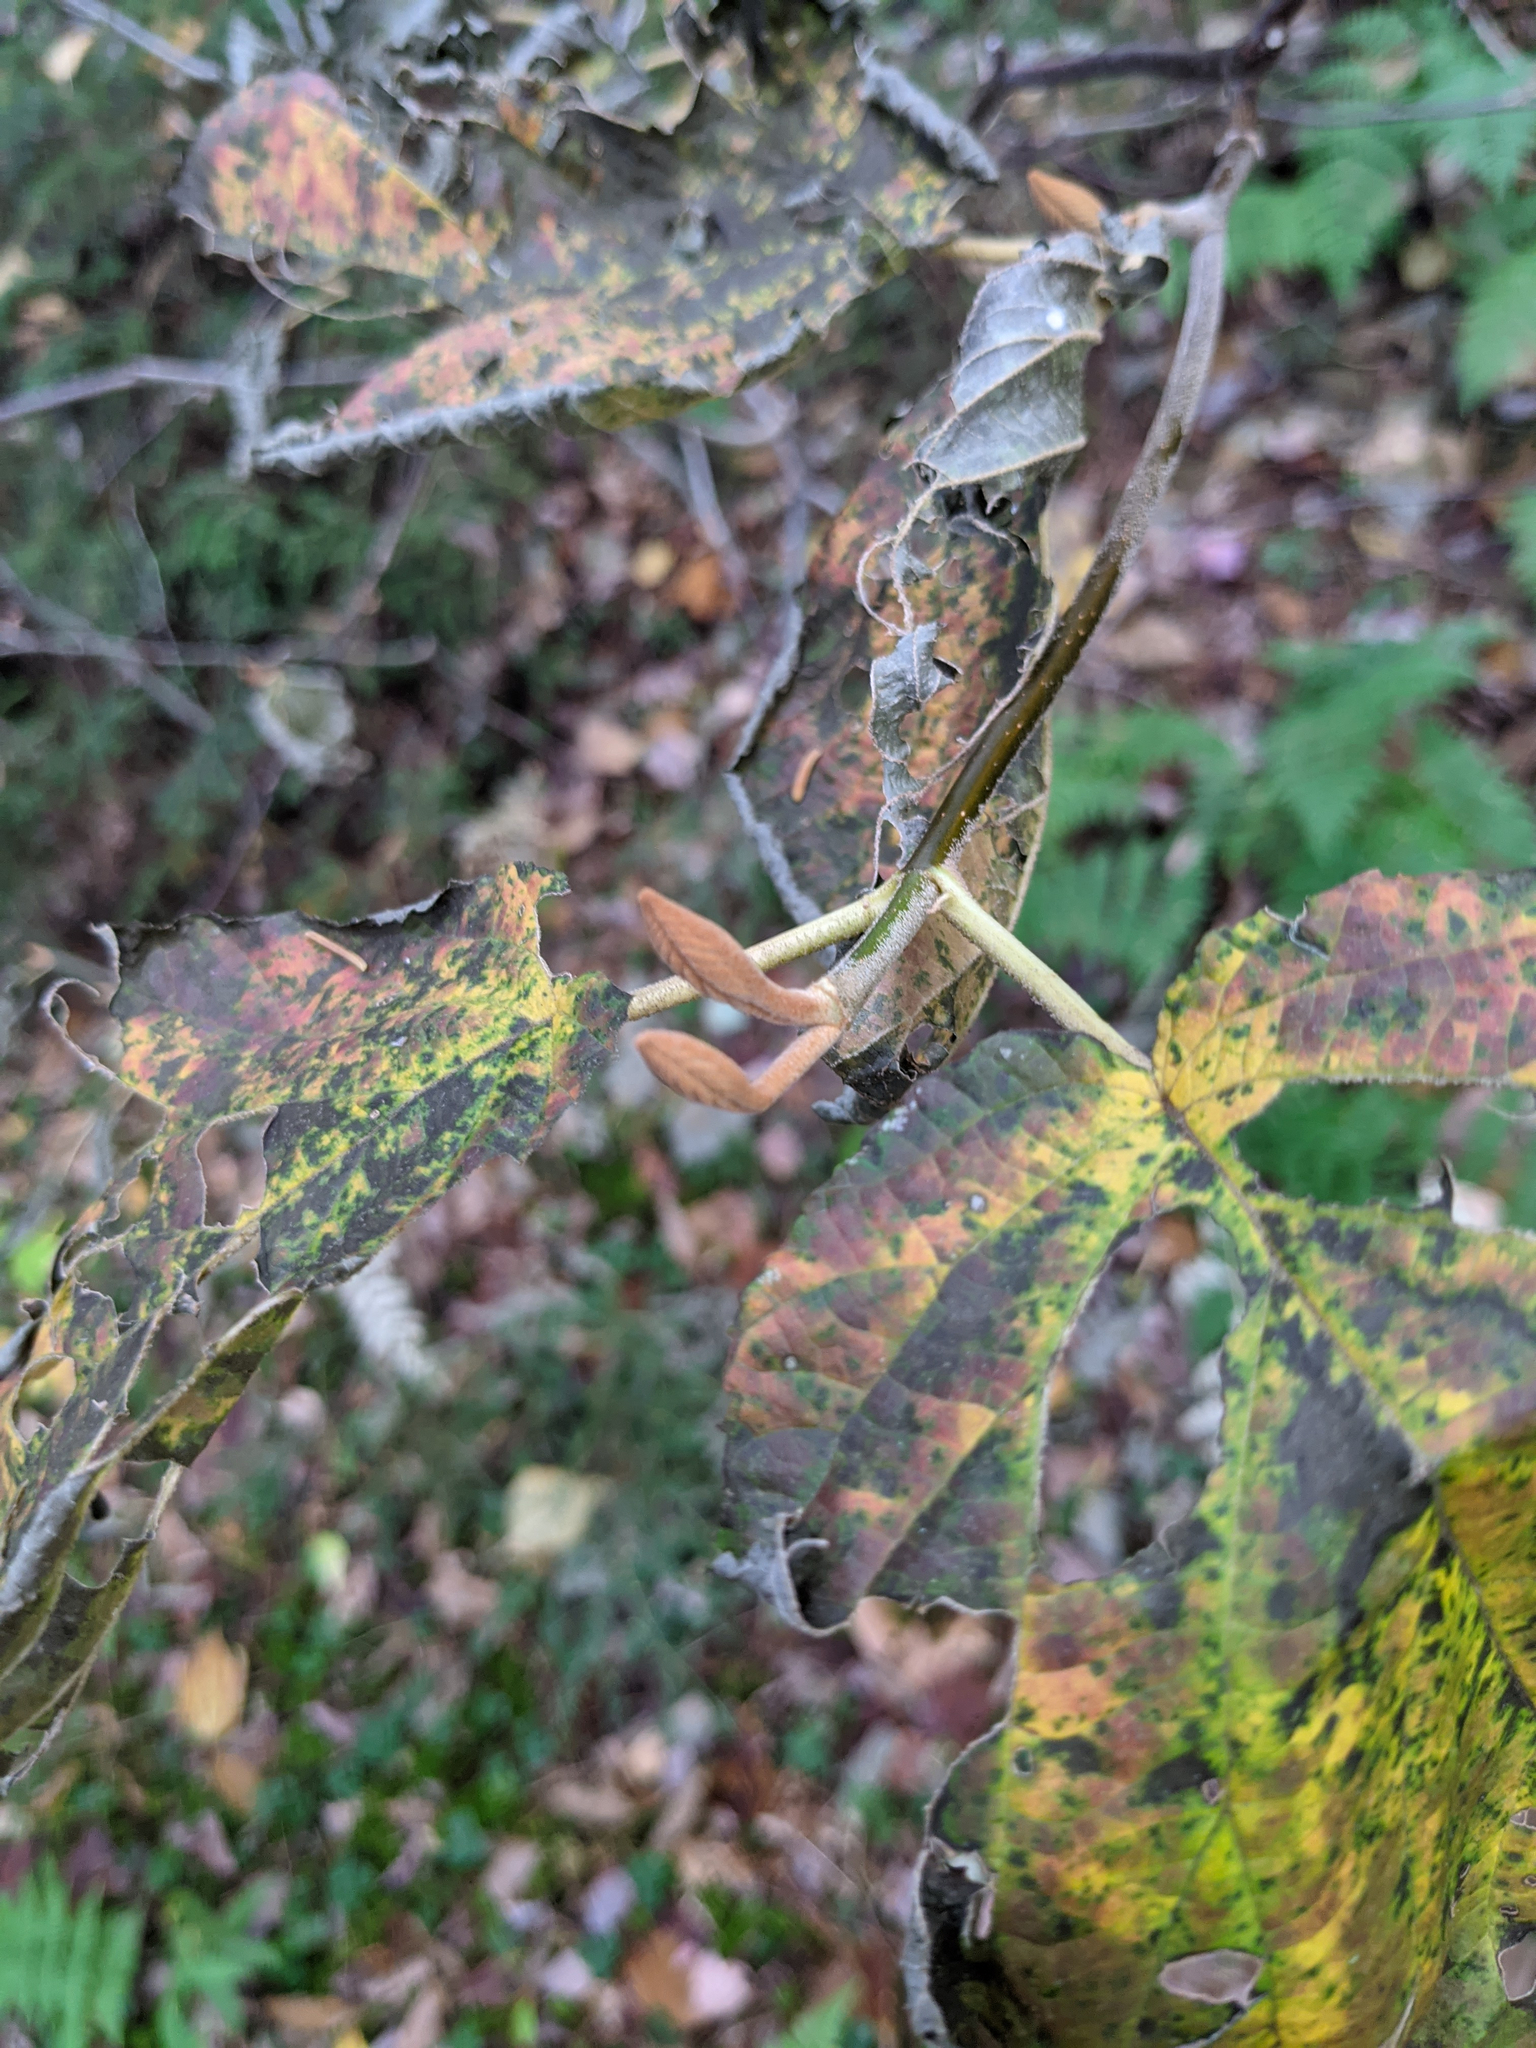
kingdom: Plantae
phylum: Tracheophyta
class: Magnoliopsida
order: Dipsacales
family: Viburnaceae
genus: Viburnum
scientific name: Viburnum lantanoides
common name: Hobblebush
